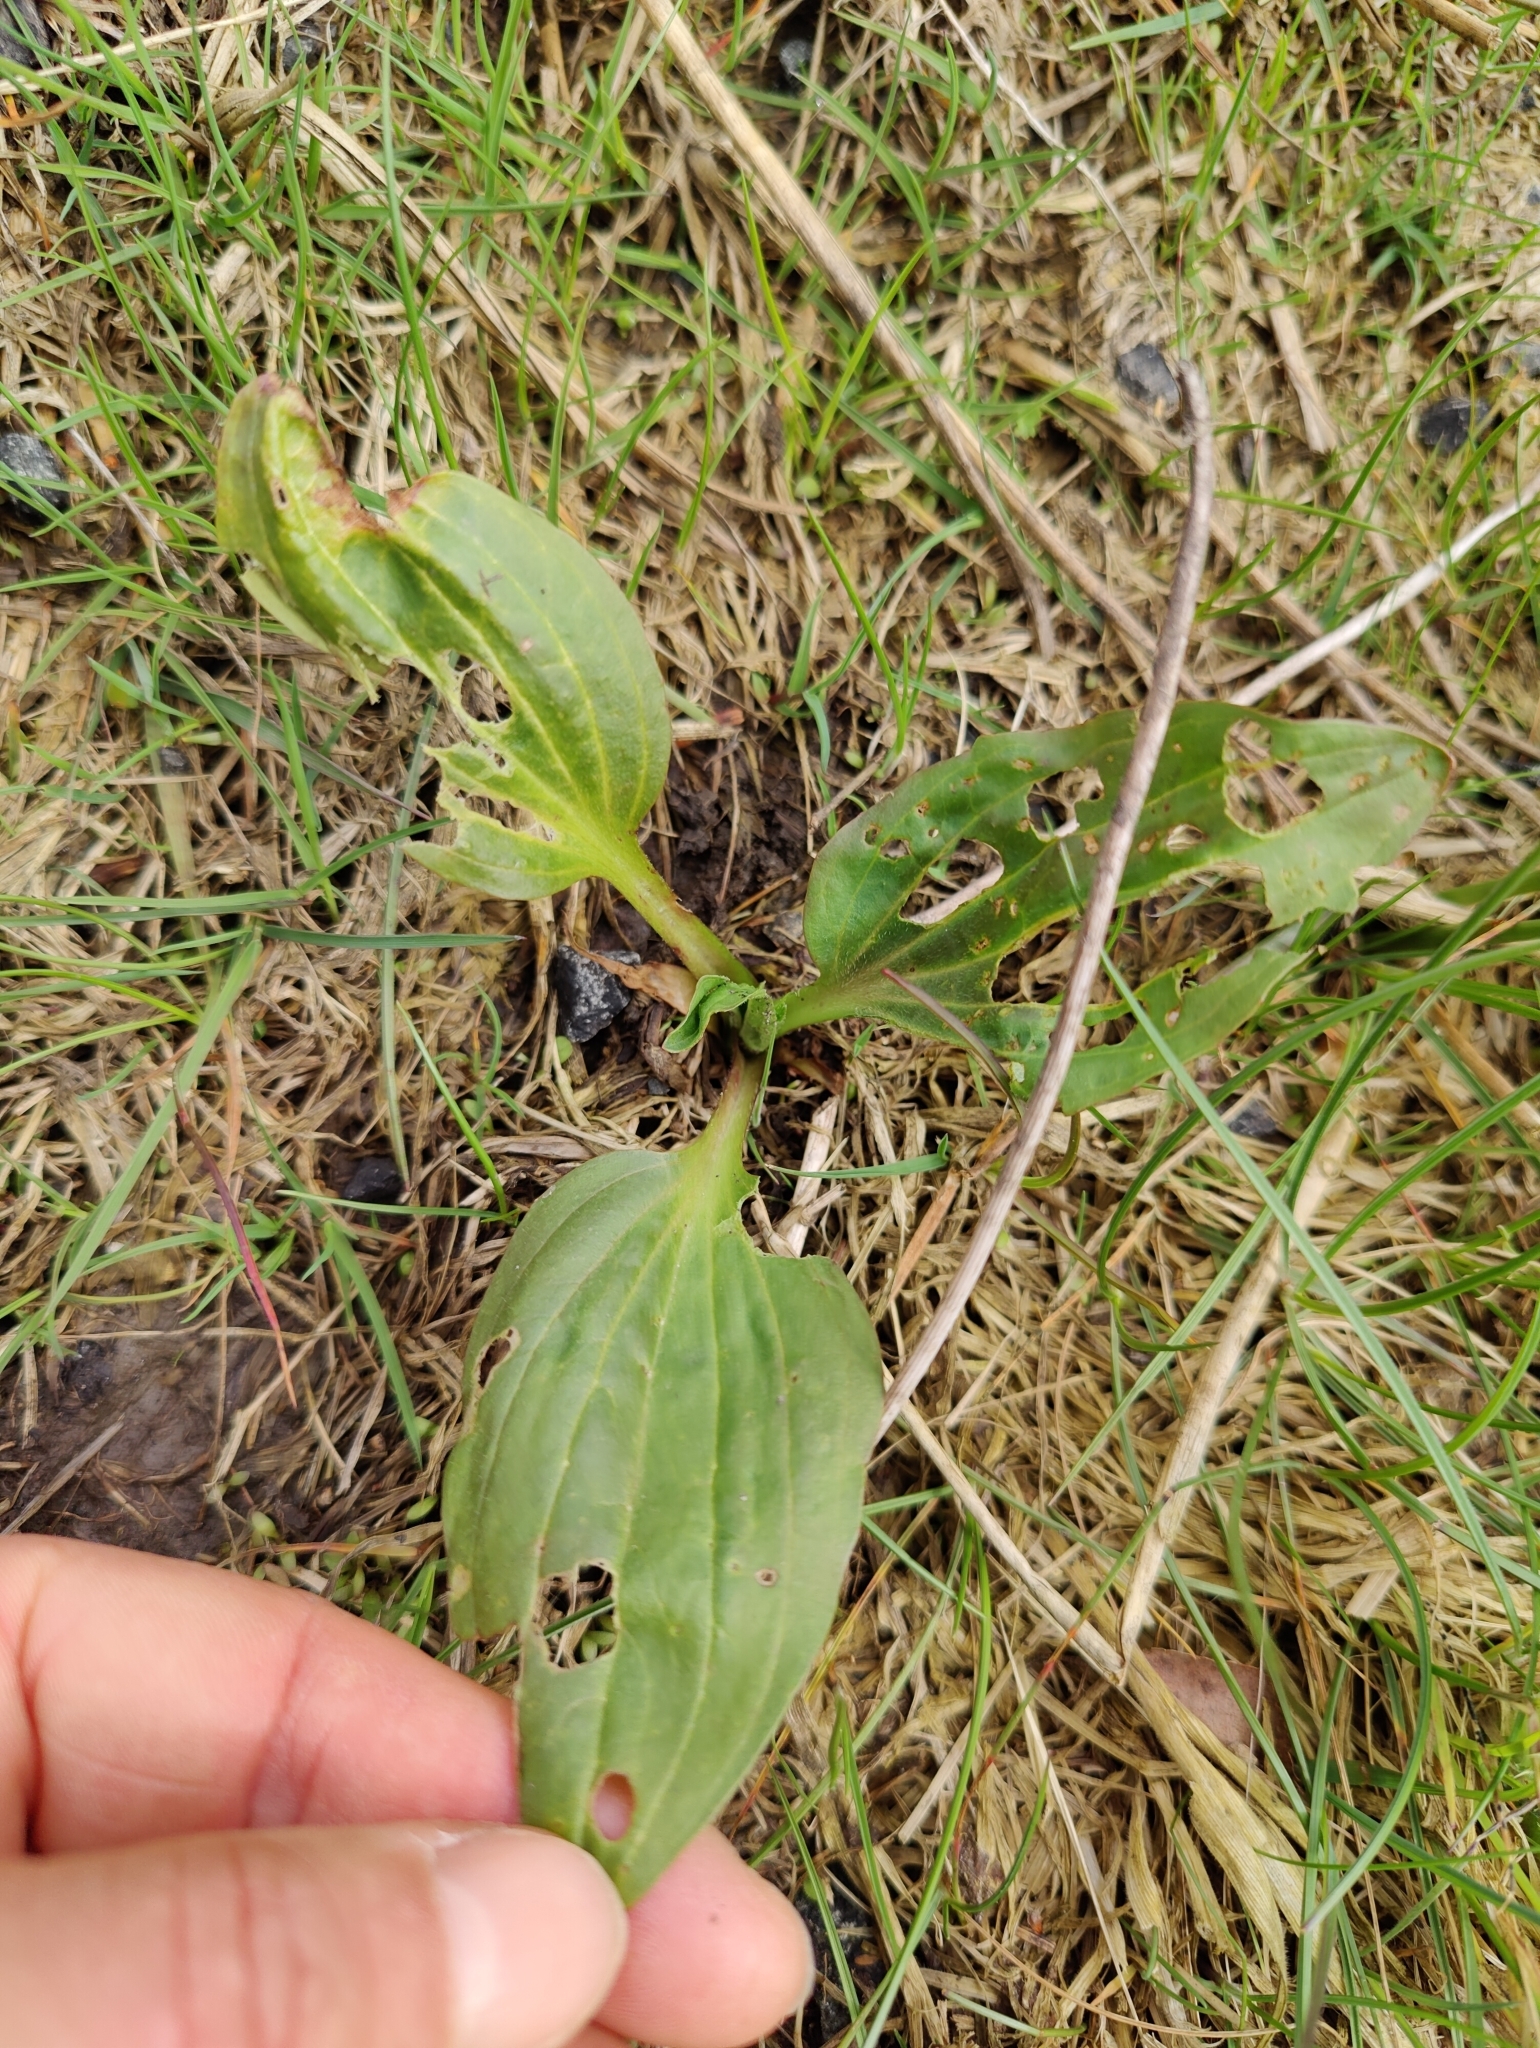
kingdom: Plantae
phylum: Tracheophyta
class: Magnoliopsida
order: Lamiales
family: Plantaginaceae
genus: Plantago
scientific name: Plantago major
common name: Common plantain
